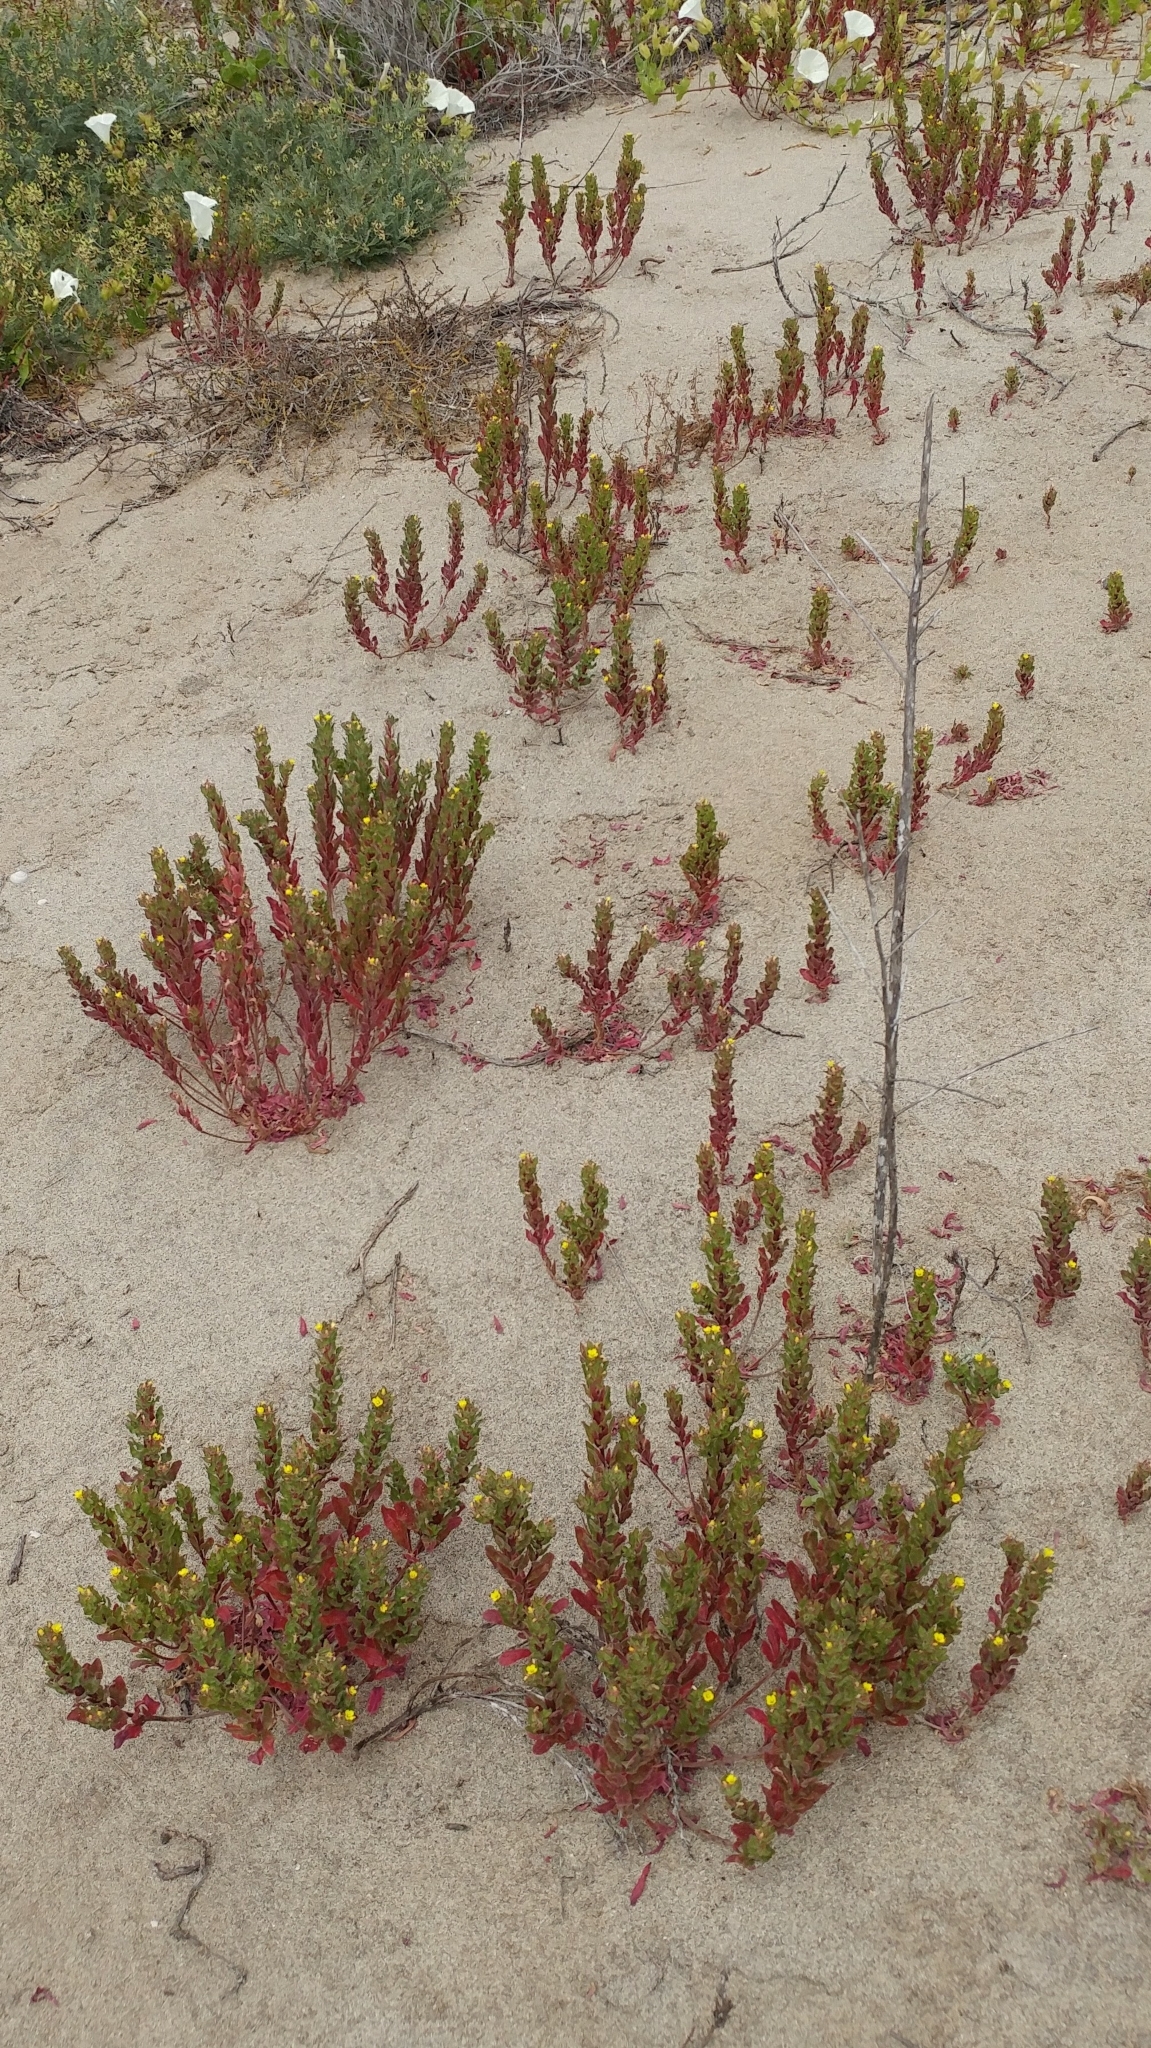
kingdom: Plantae
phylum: Tracheophyta
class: Magnoliopsida
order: Myrtales
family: Onagraceae
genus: Camissoniopsis
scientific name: Camissoniopsis guadalupensis
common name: Guadalupe suncup
